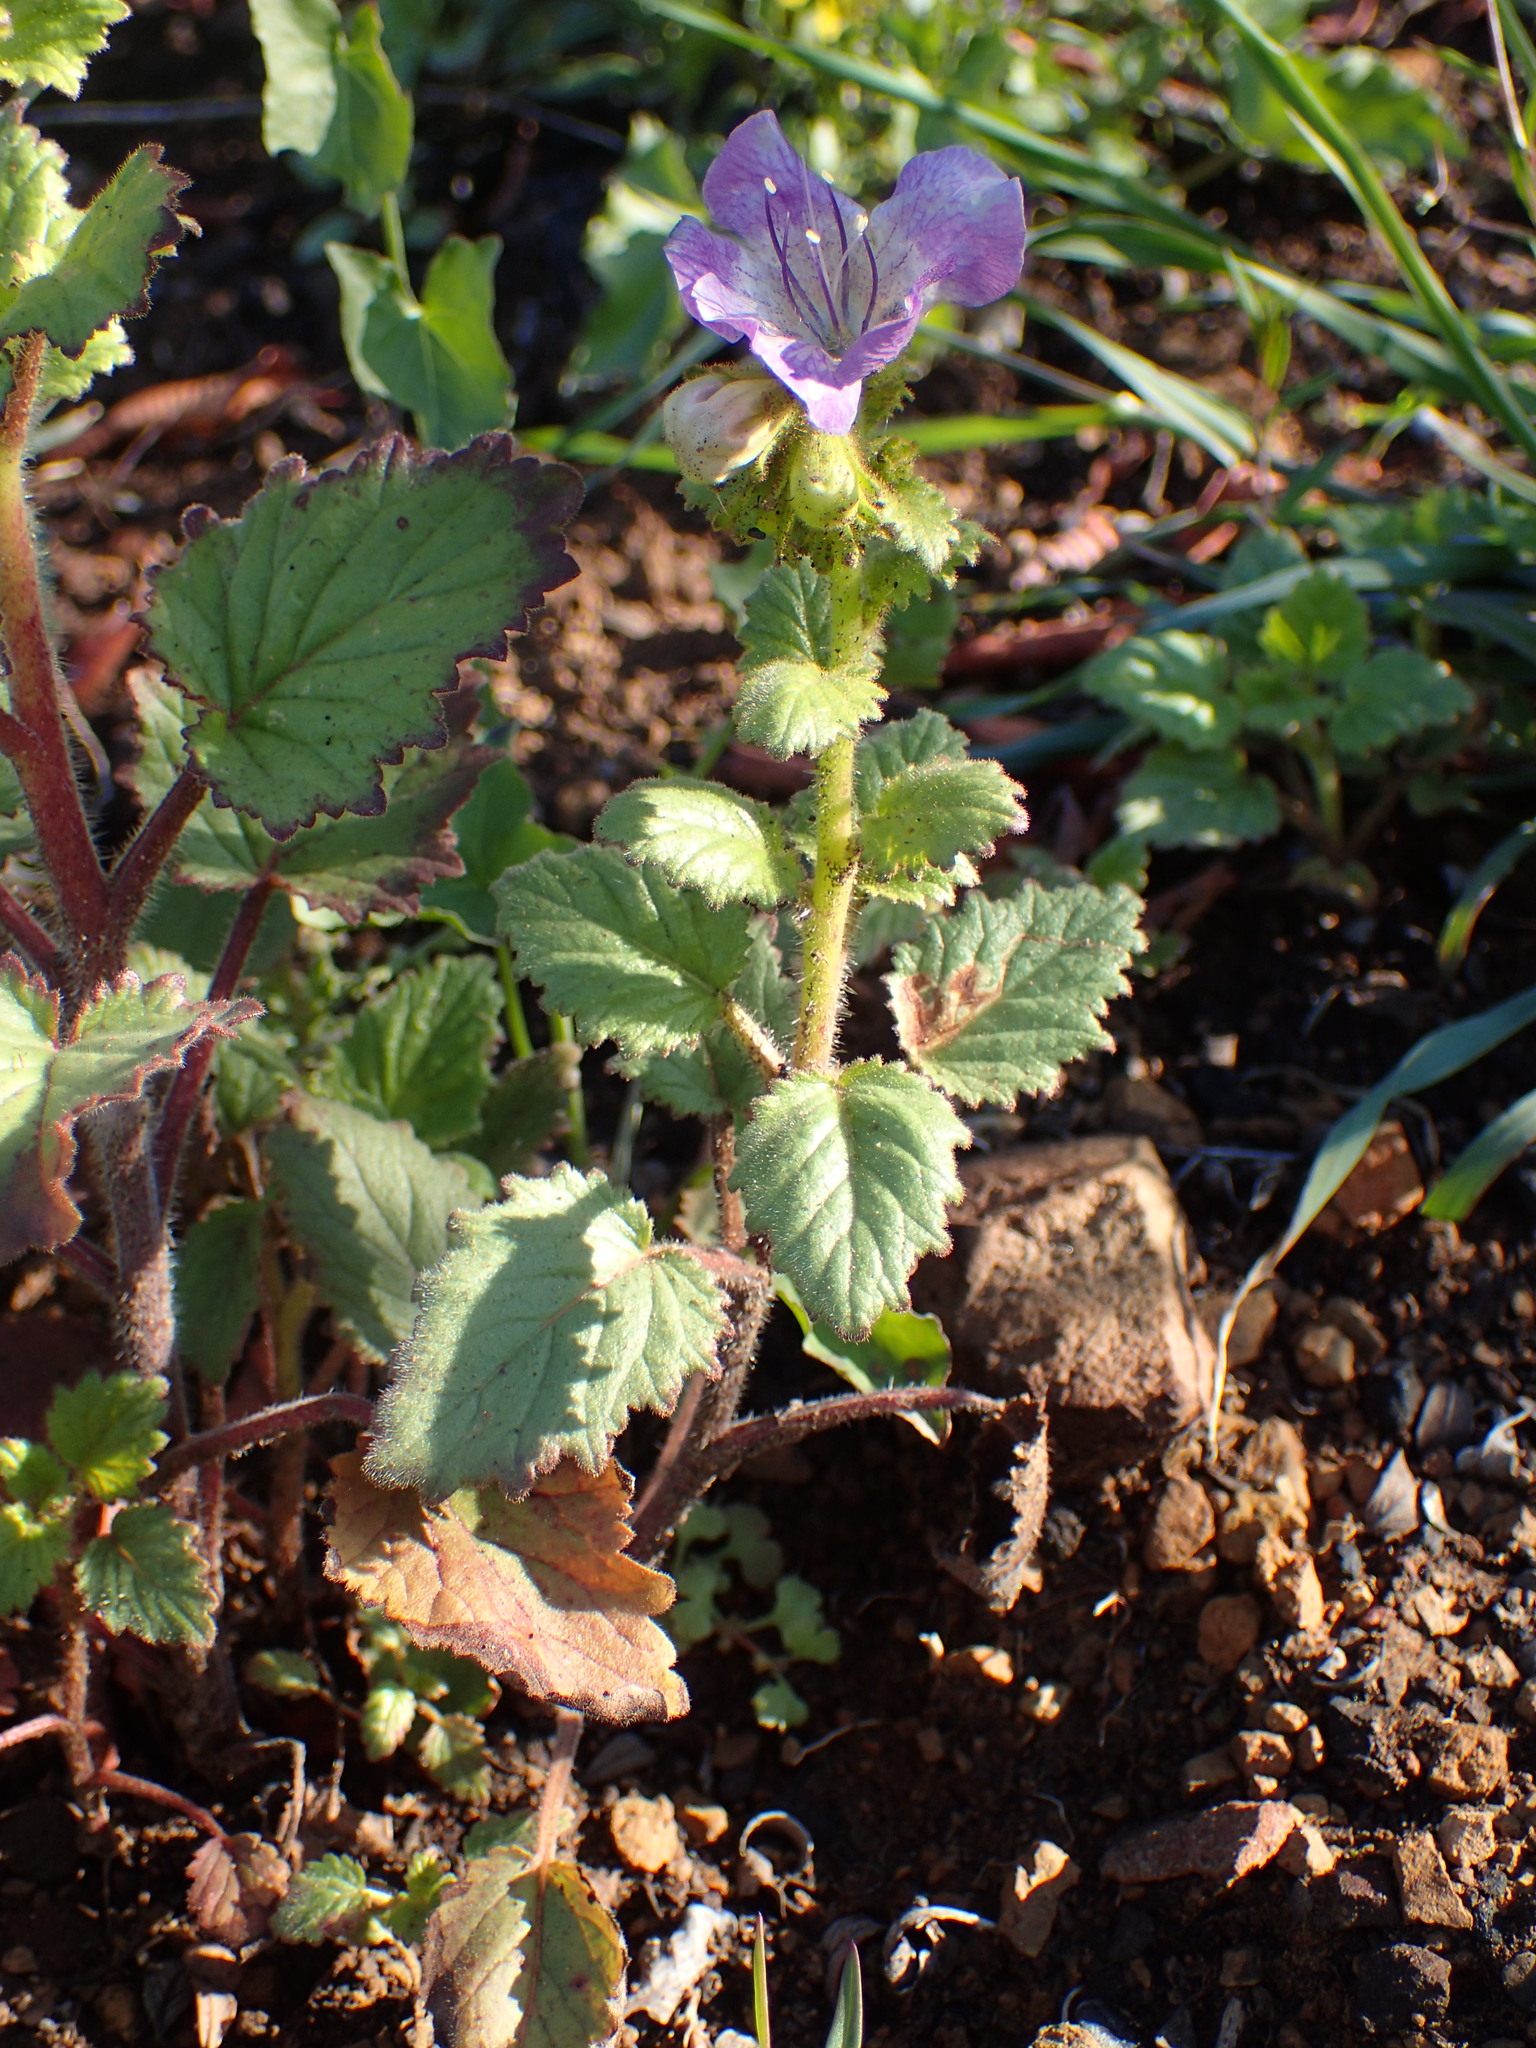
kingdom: Plantae
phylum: Tracheophyta
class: Magnoliopsida
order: Boraginales
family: Hydrophyllaceae
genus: Phacelia
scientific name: Phacelia grandiflora
